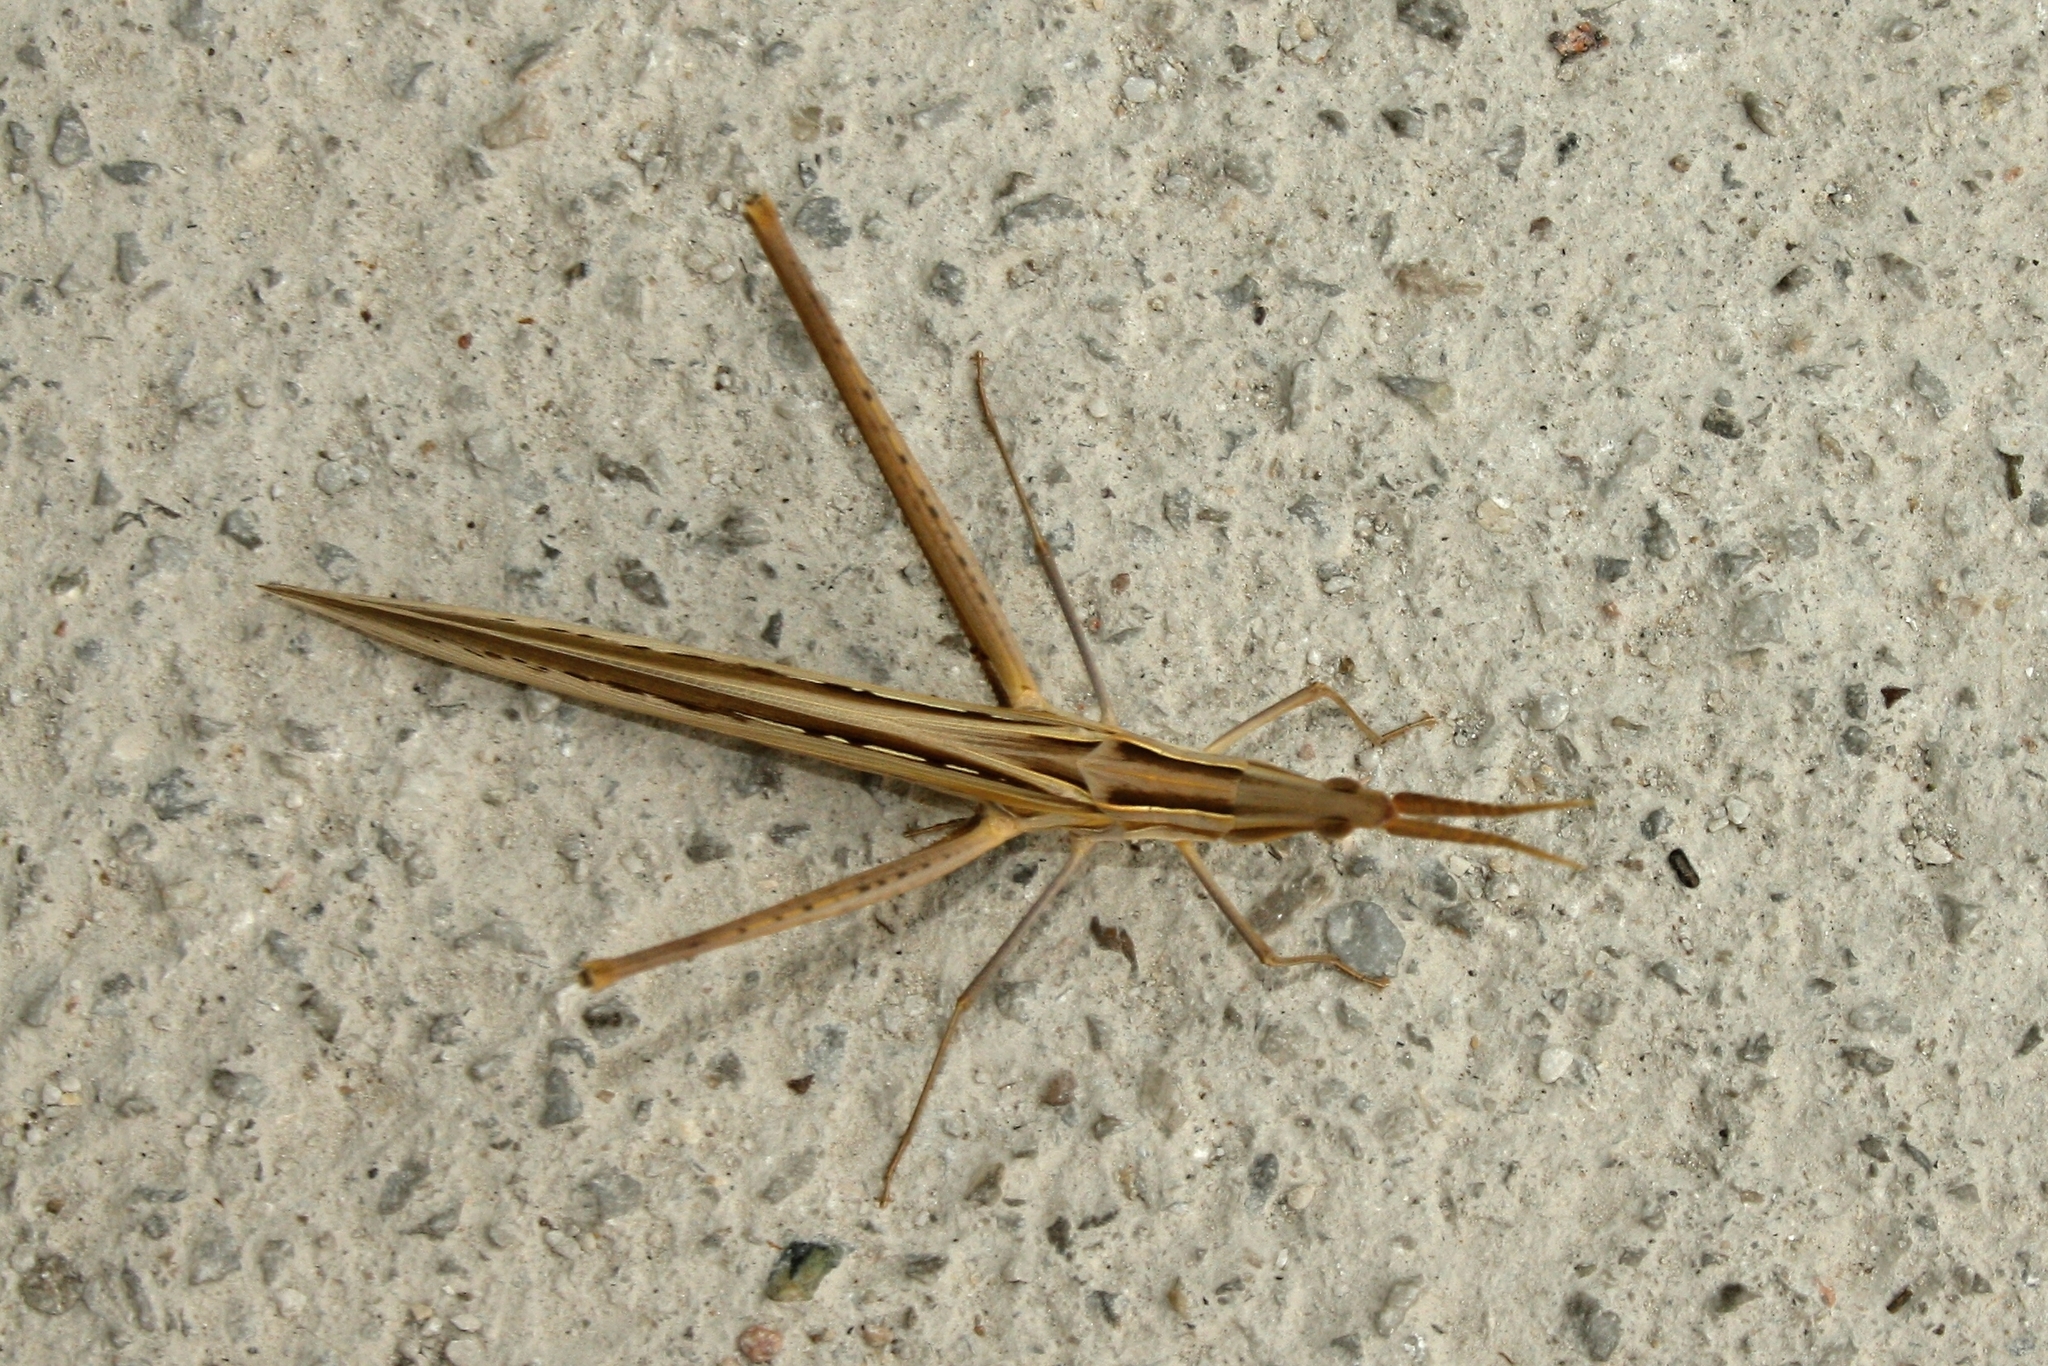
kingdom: Animalia
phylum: Arthropoda
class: Insecta
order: Orthoptera
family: Acrididae
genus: Acrida
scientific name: Acrida ungarica
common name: Common cone-headed grasshopper
